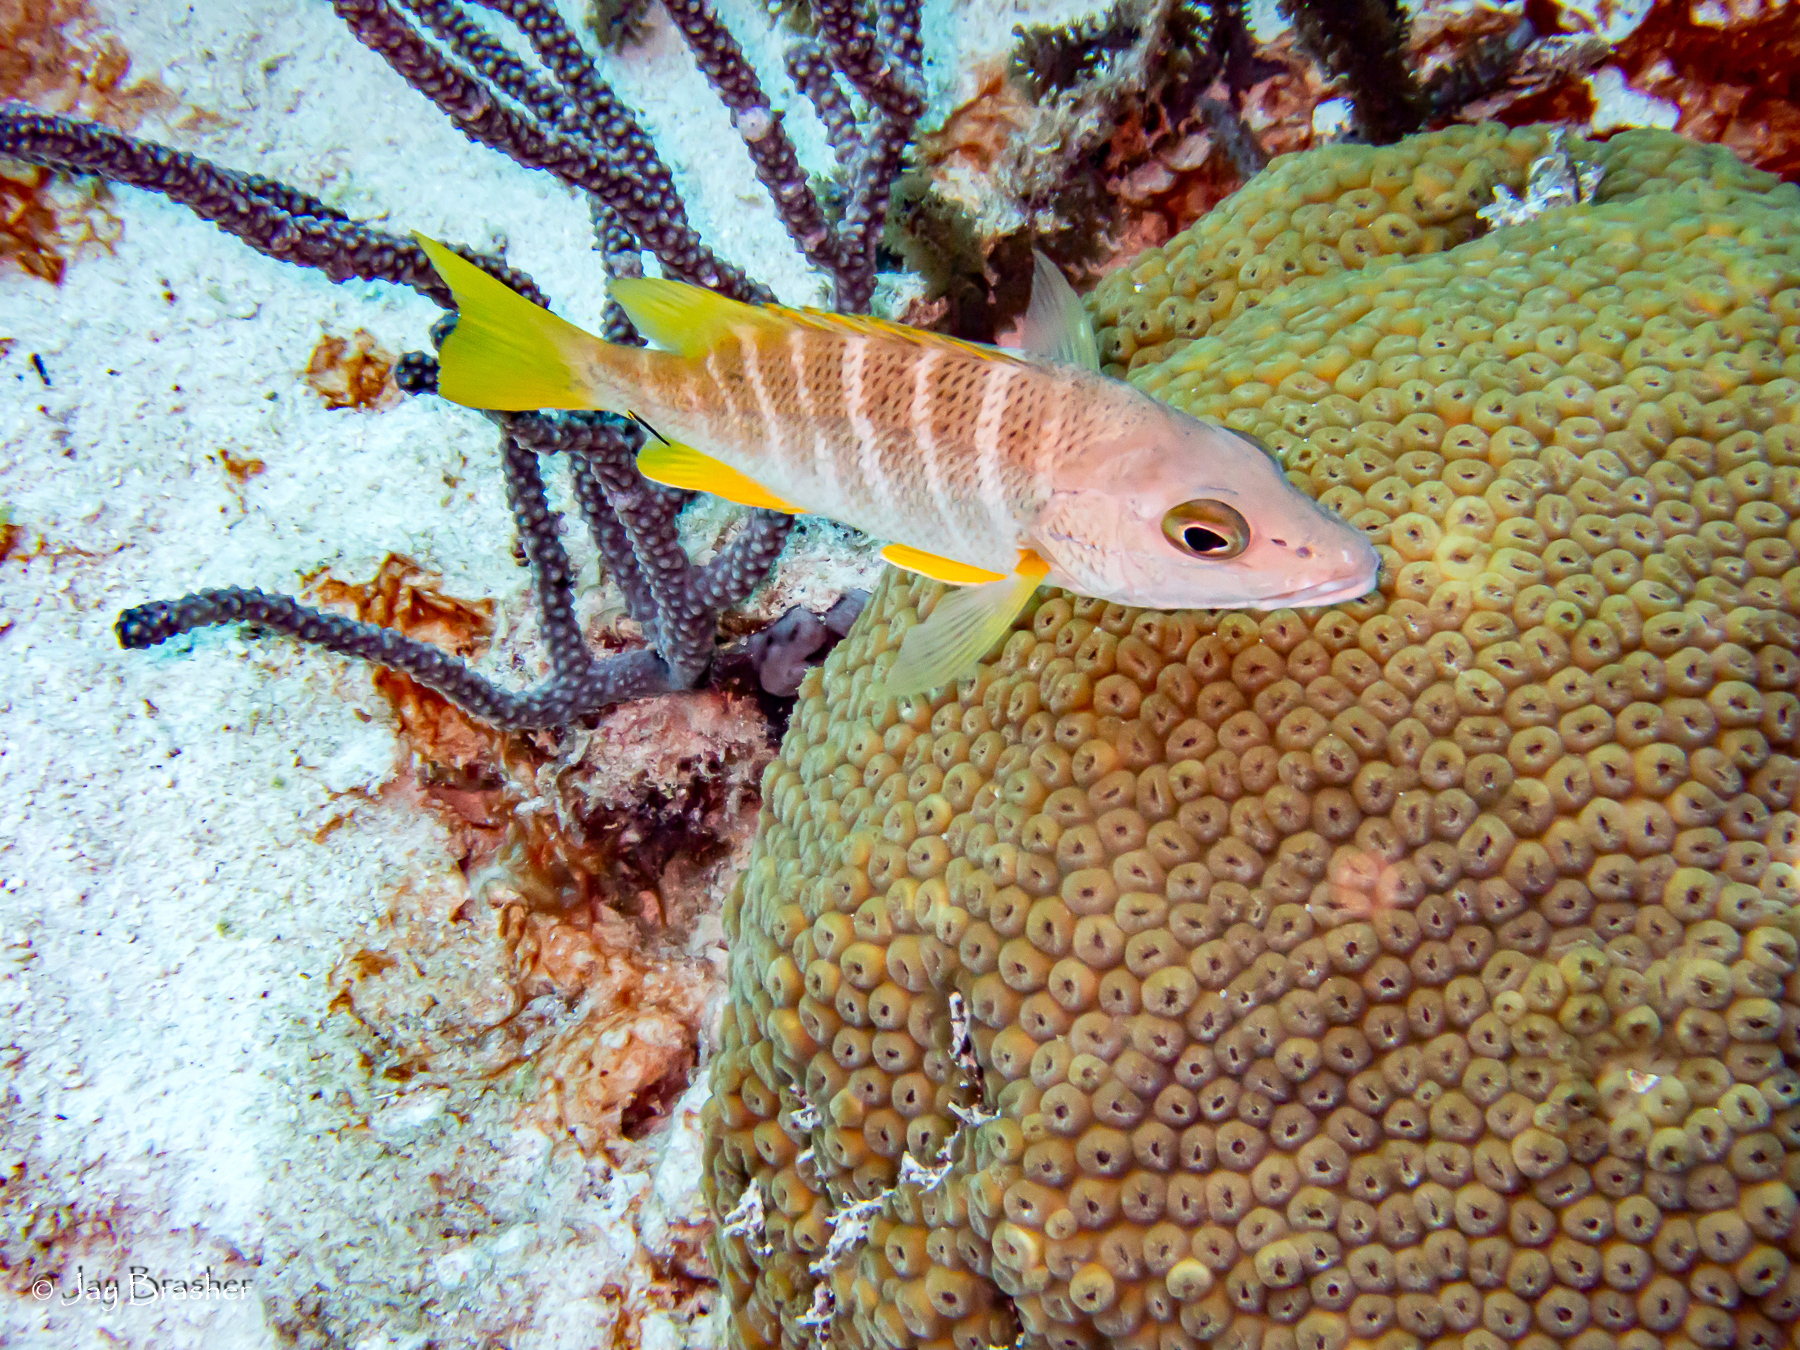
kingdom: Animalia
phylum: Chordata
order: Perciformes
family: Lutjanidae
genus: Lutjanus
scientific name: Lutjanus apodus
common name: Schoolmaster
